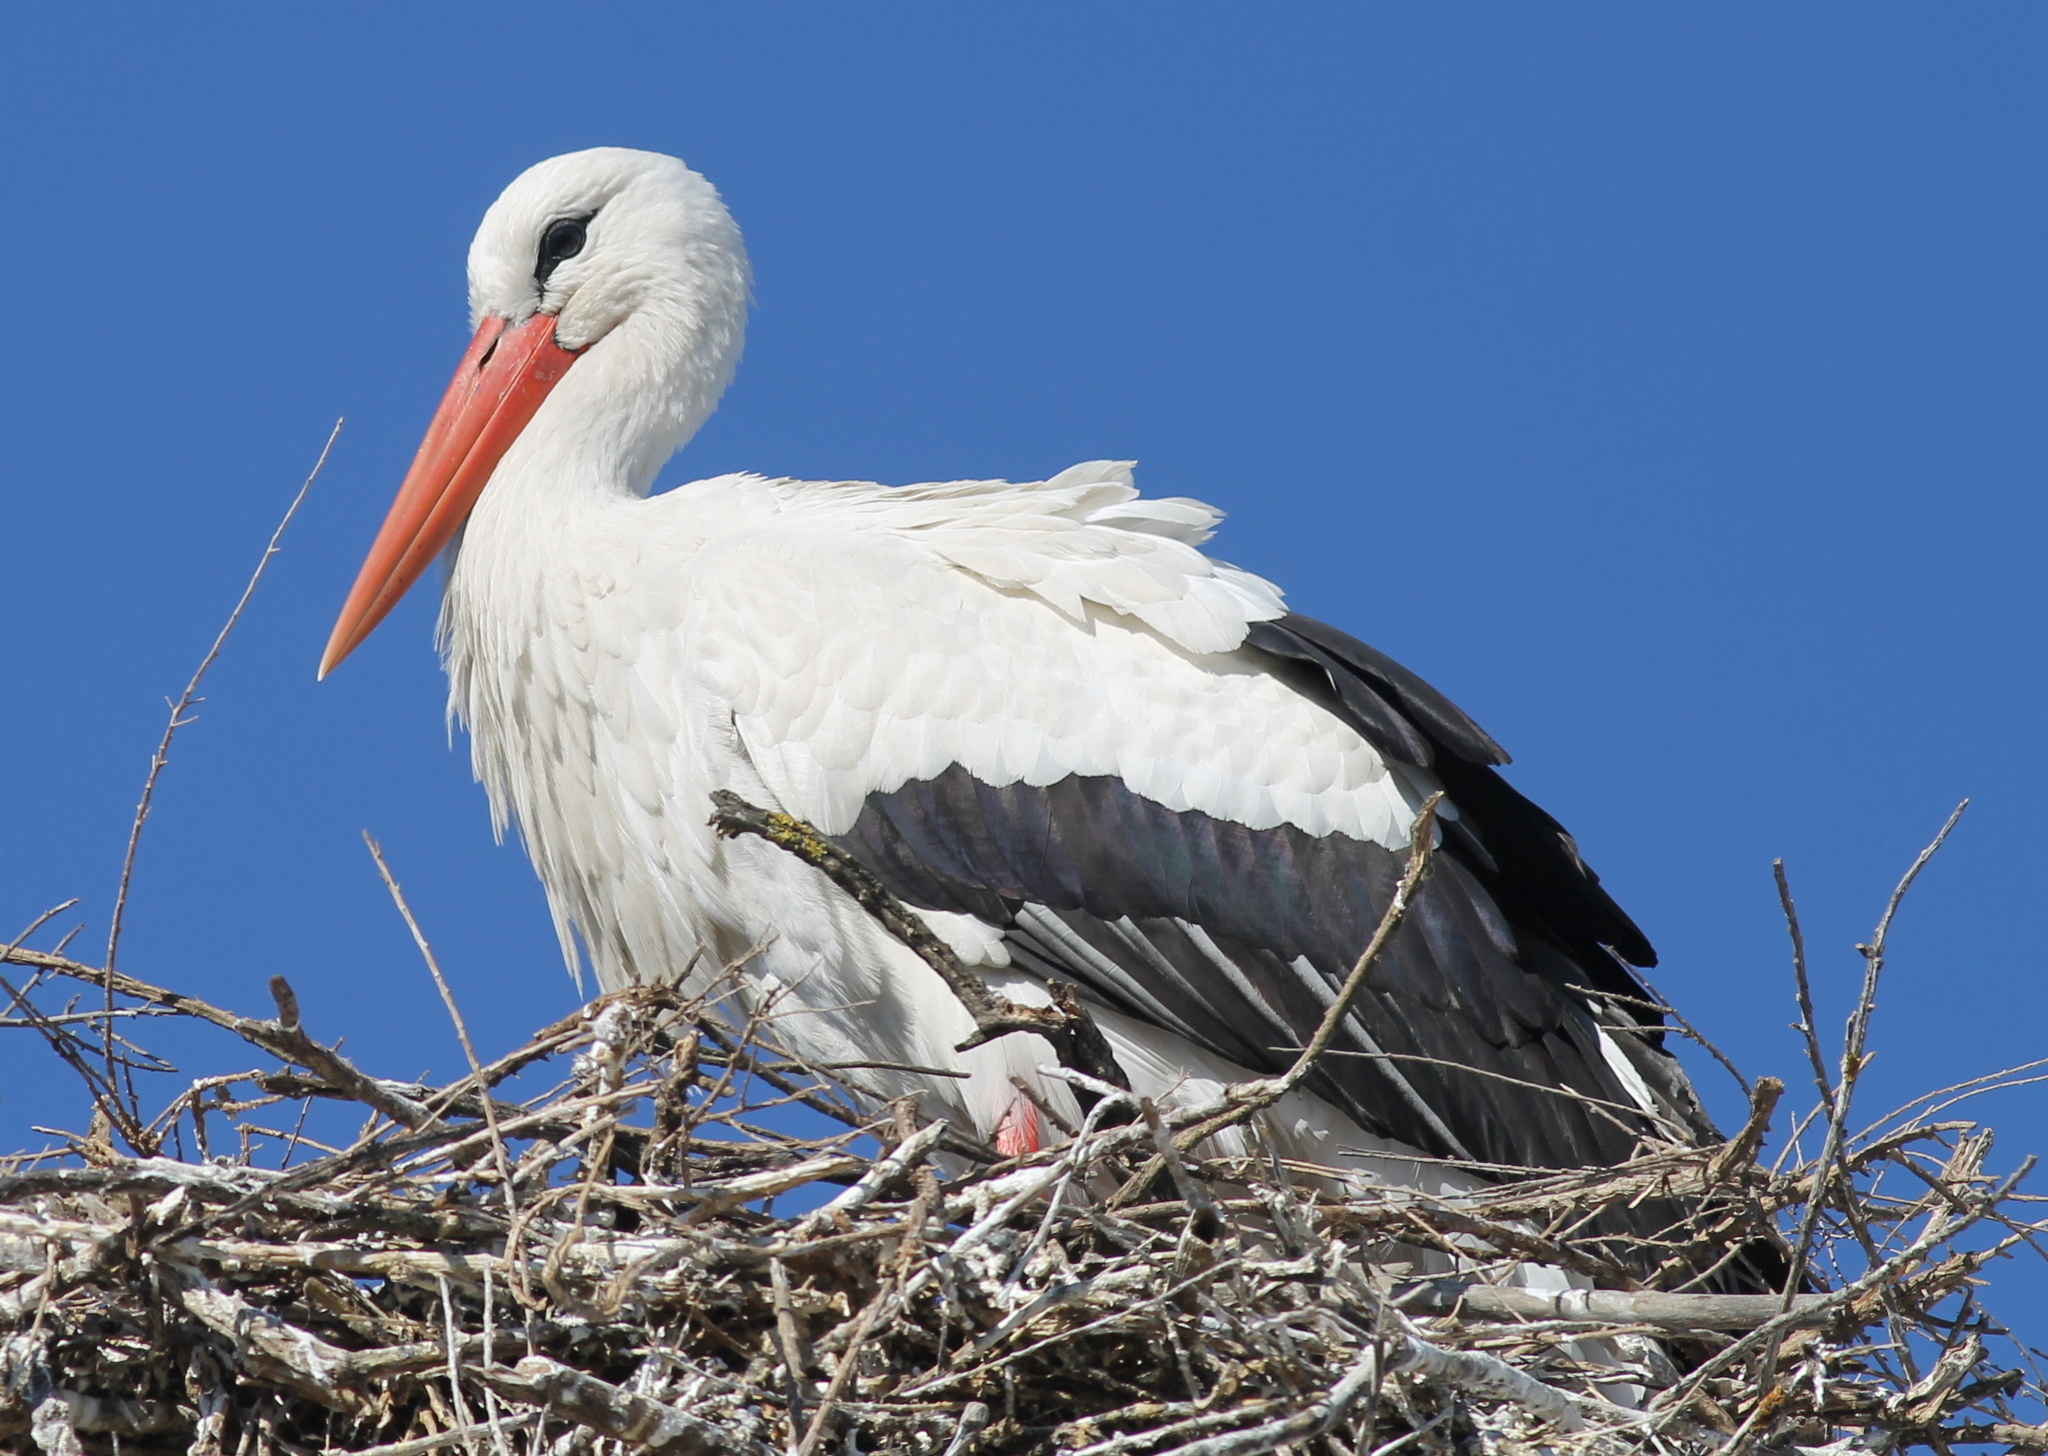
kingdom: Animalia
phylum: Chordata
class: Aves
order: Ciconiiformes
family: Ciconiidae
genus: Ciconia
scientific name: Ciconia ciconia
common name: White stork
